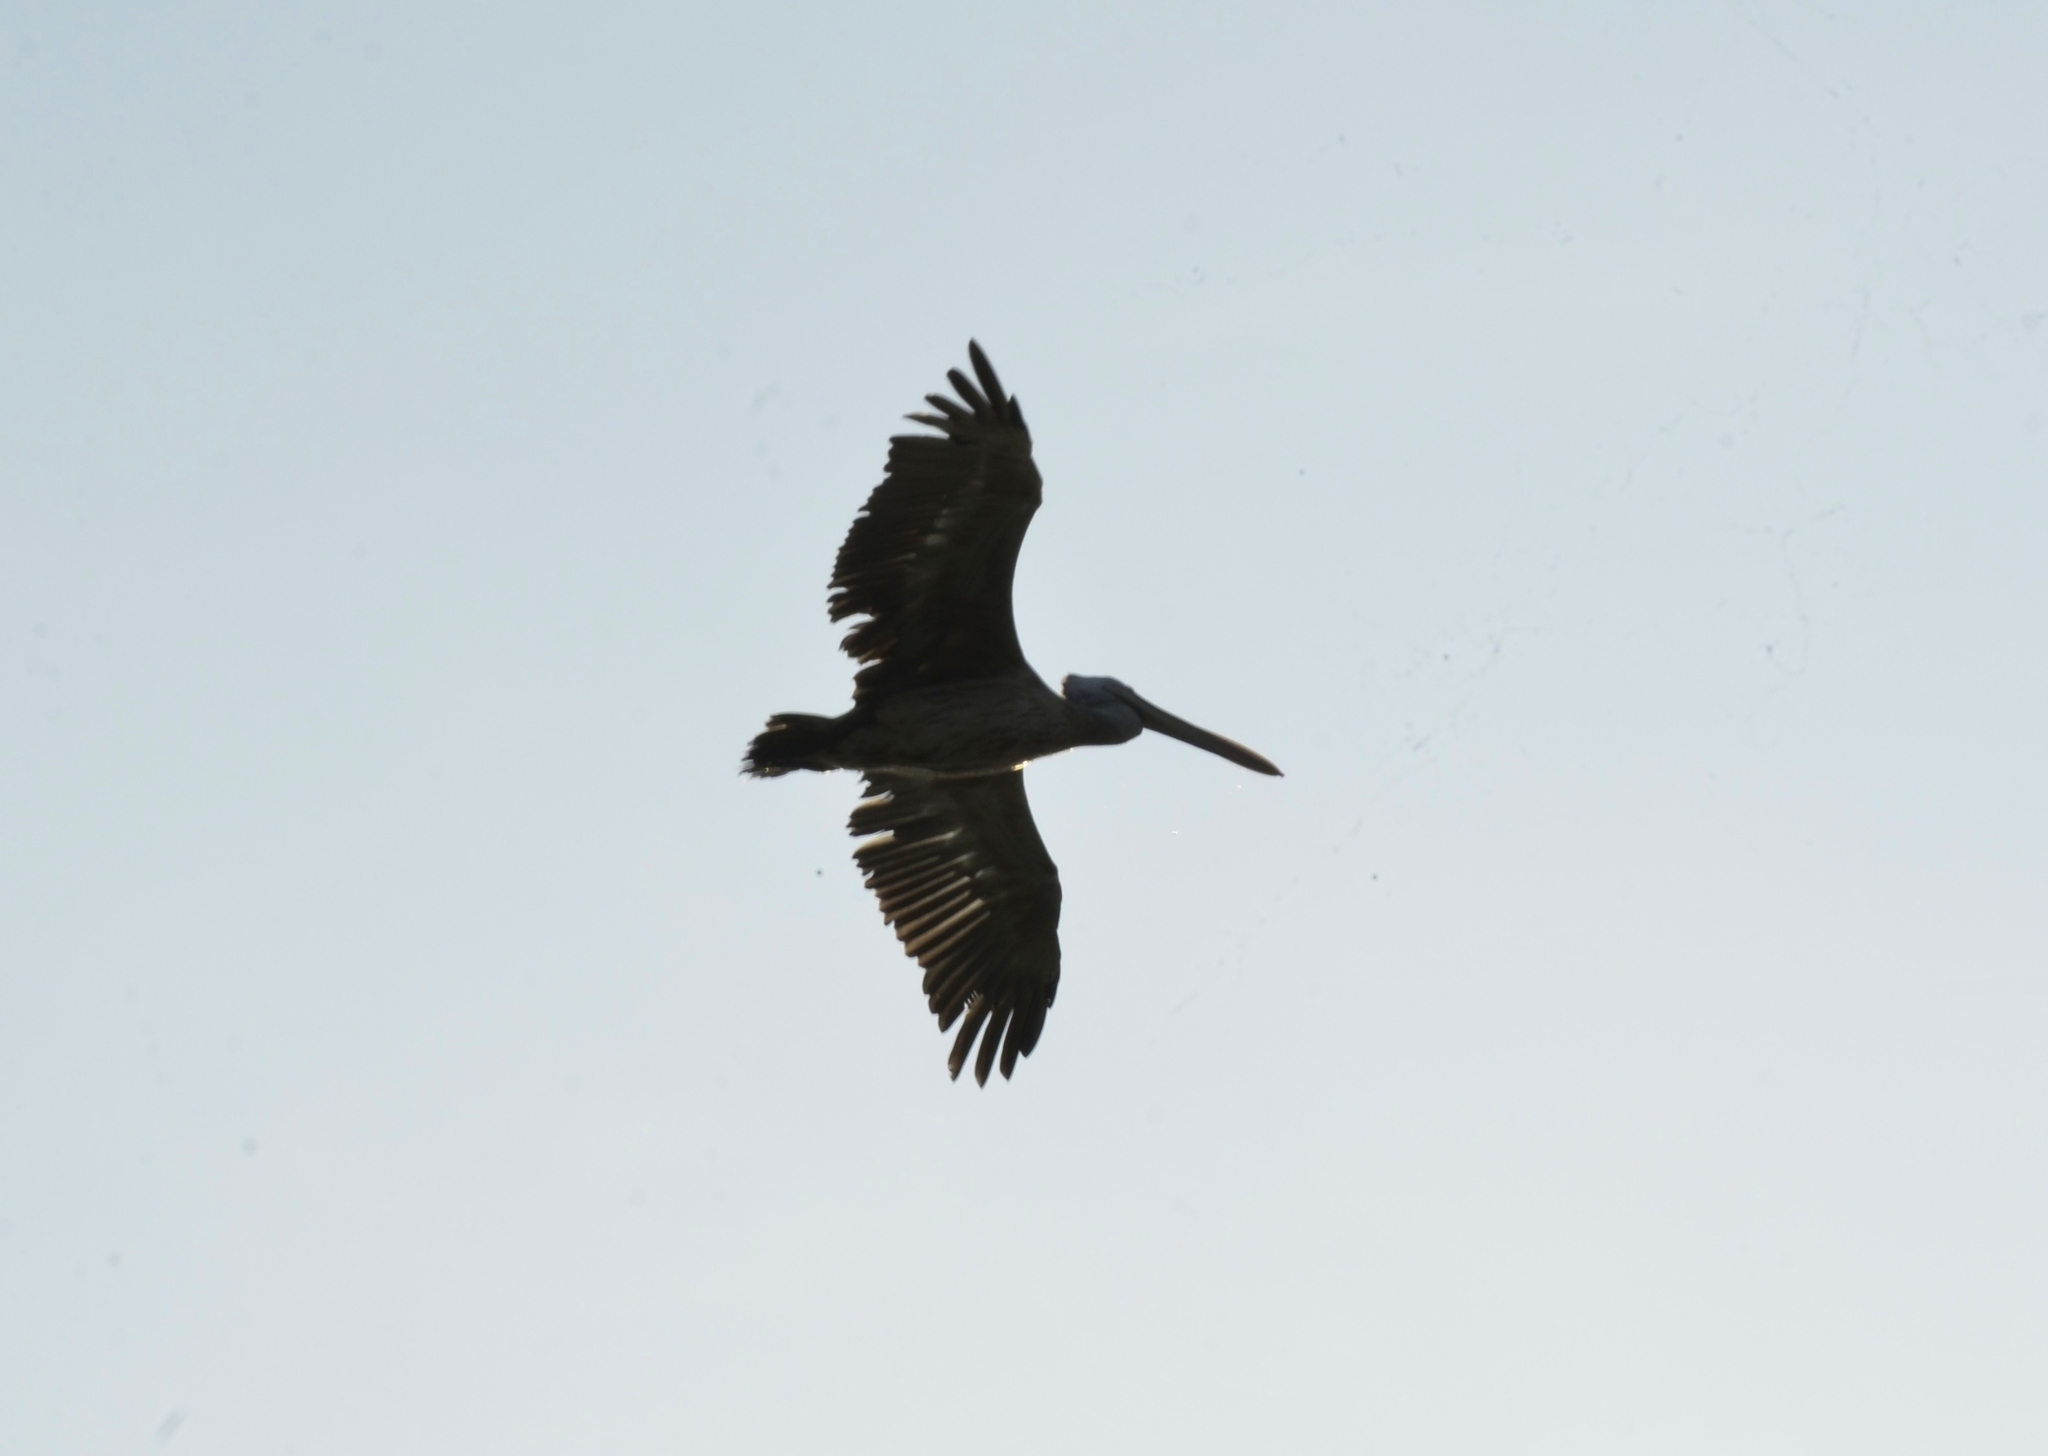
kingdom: Animalia
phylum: Chordata
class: Aves
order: Pelecaniformes
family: Pelecanidae
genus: Pelecanus
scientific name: Pelecanus philippensis
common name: Spot-billed pelican
